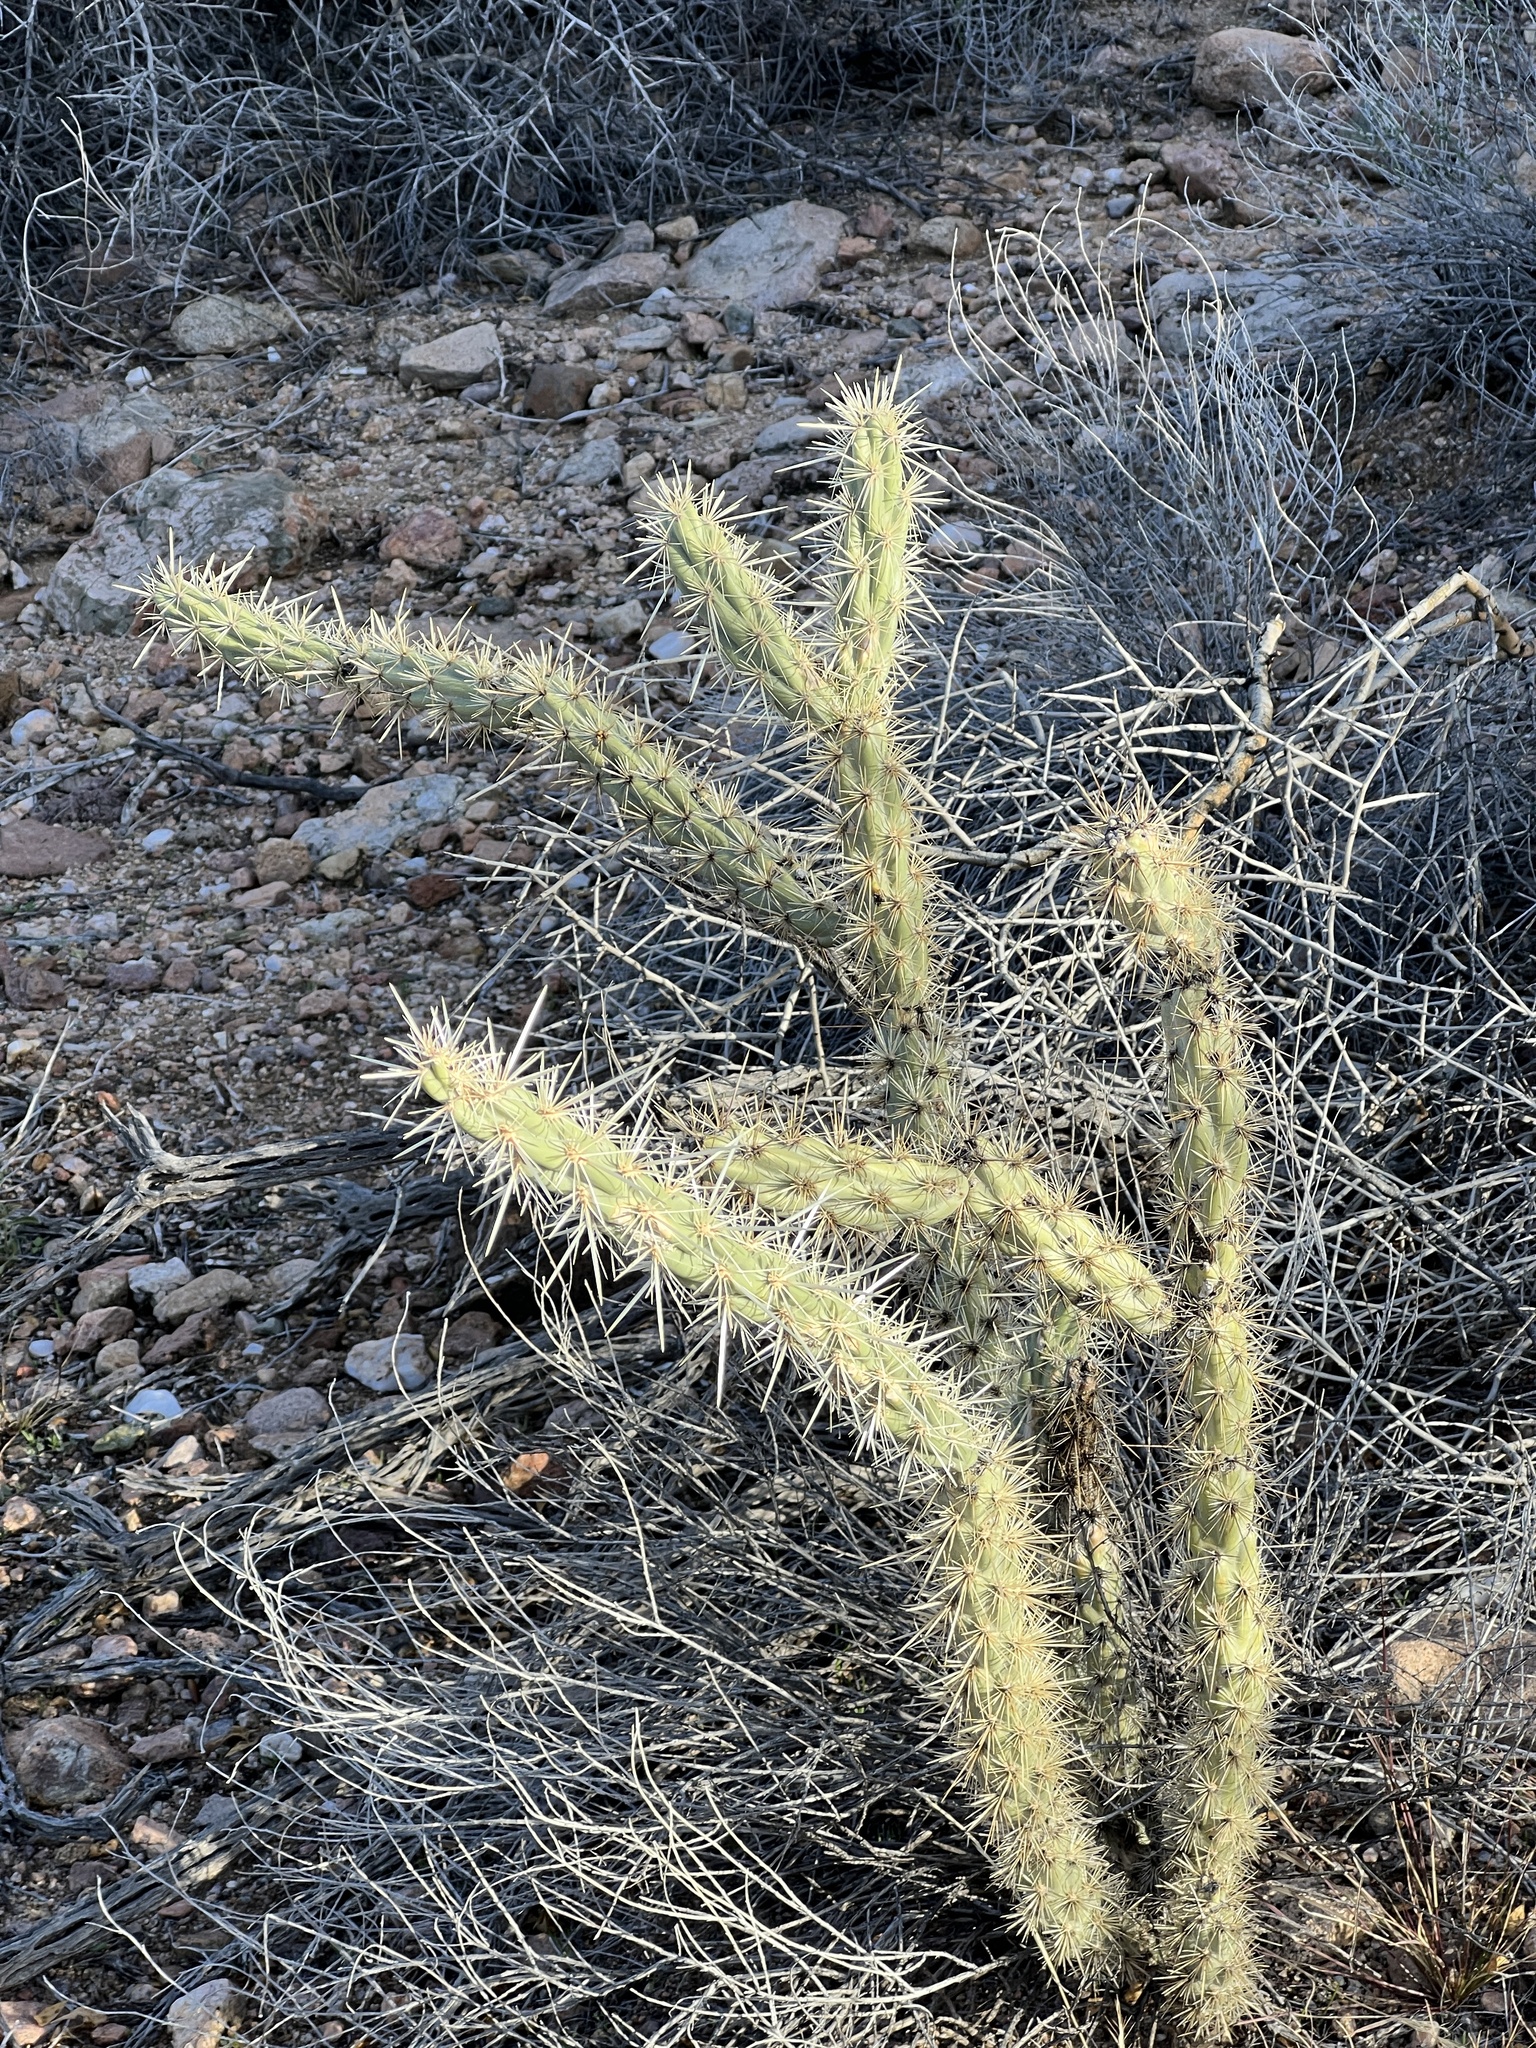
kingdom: Plantae
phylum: Tracheophyta
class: Magnoliopsida
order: Caryophyllales
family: Cactaceae
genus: Cylindropuntia
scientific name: Cylindropuntia acanthocarpa
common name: Buckhorn cholla
